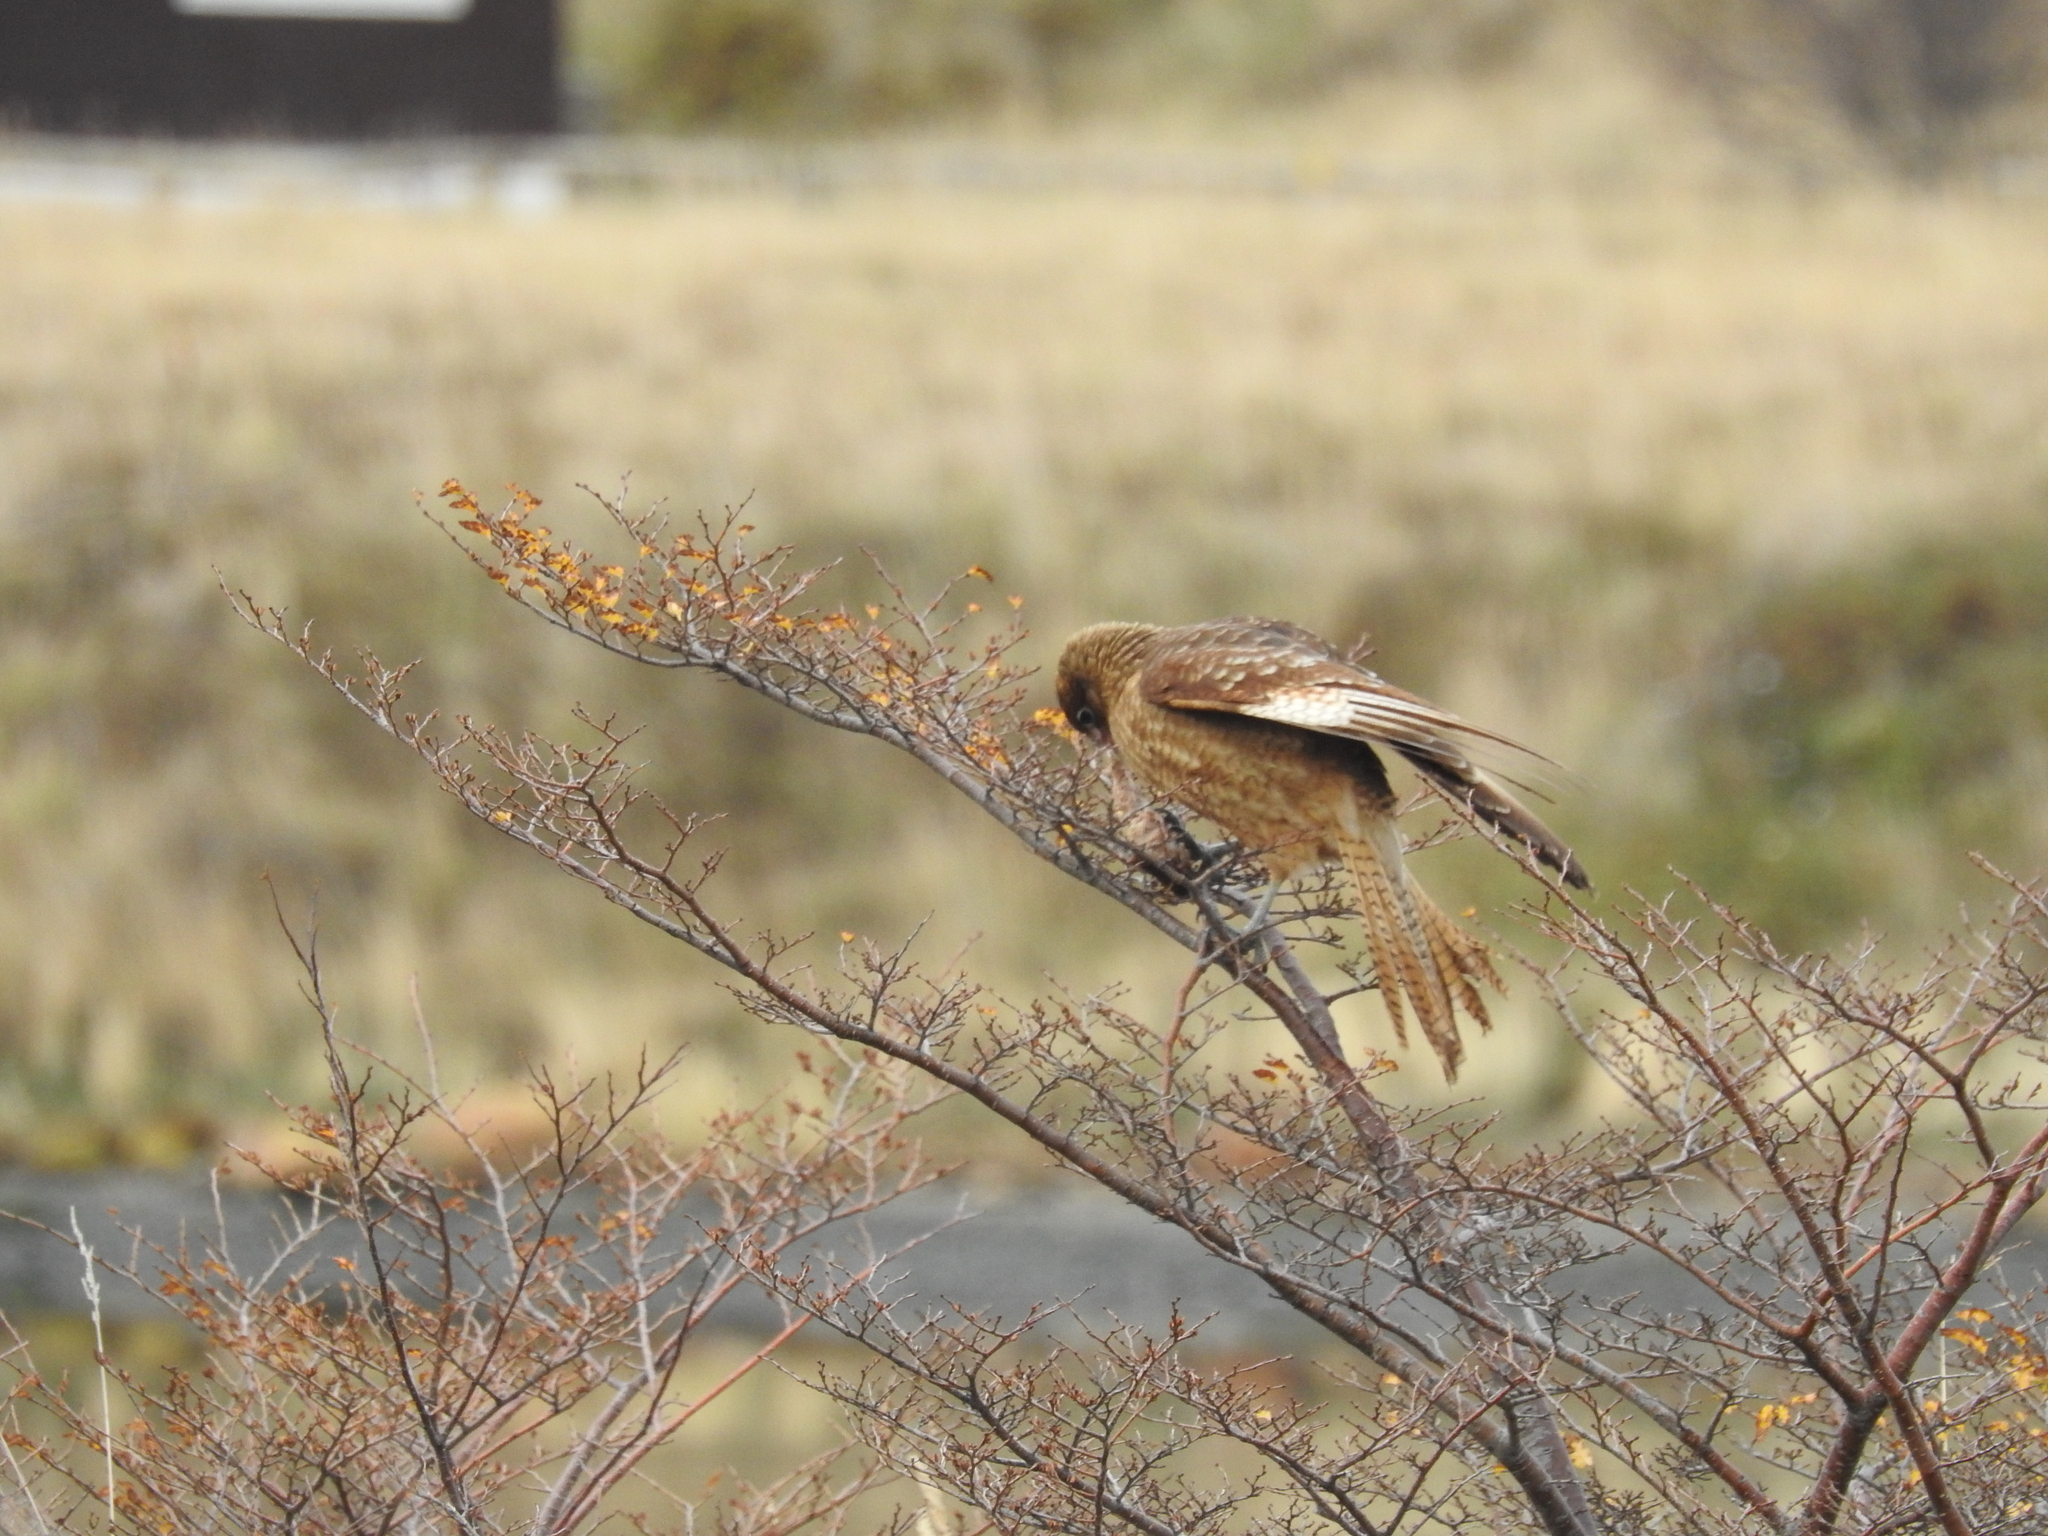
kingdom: Animalia
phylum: Chordata
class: Aves
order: Falconiformes
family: Falconidae
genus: Daptrius
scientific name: Daptrius
